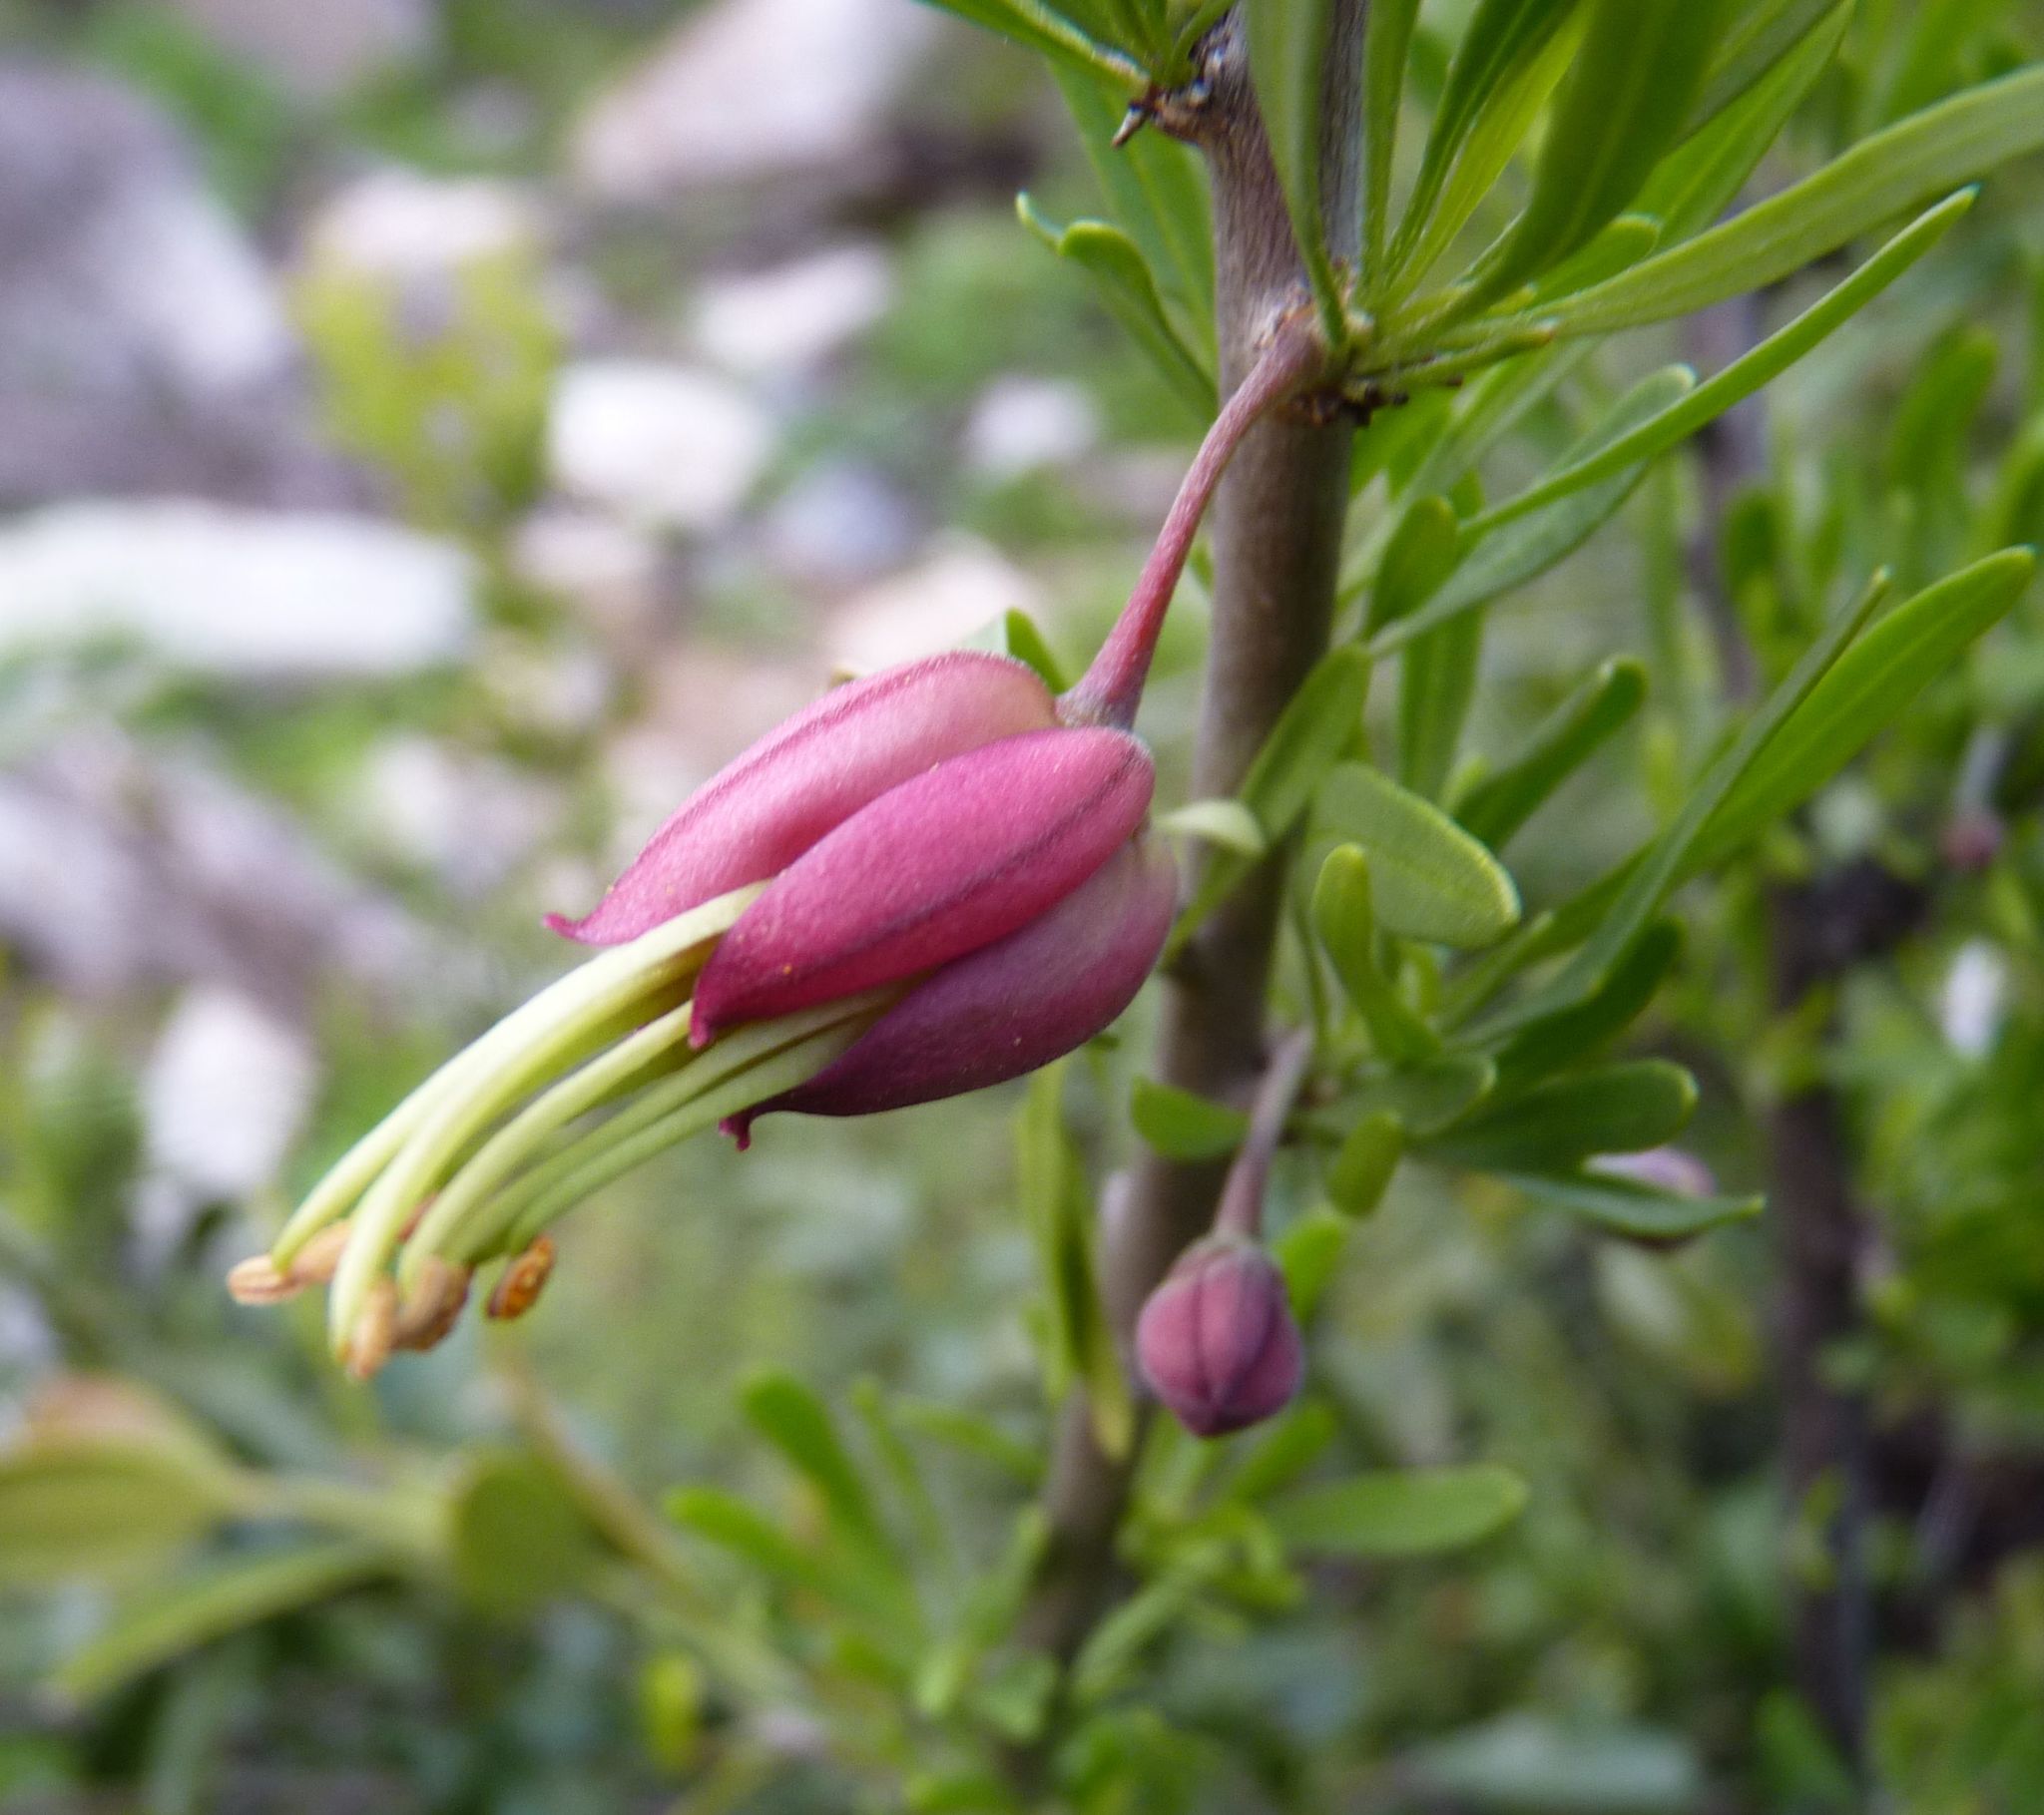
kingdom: Plantae
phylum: Tracheophyta
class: Magnoliopsida
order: Sapindales
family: Meliaceae
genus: Nymania
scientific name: Nymania capensis
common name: Chinese lantern tree
